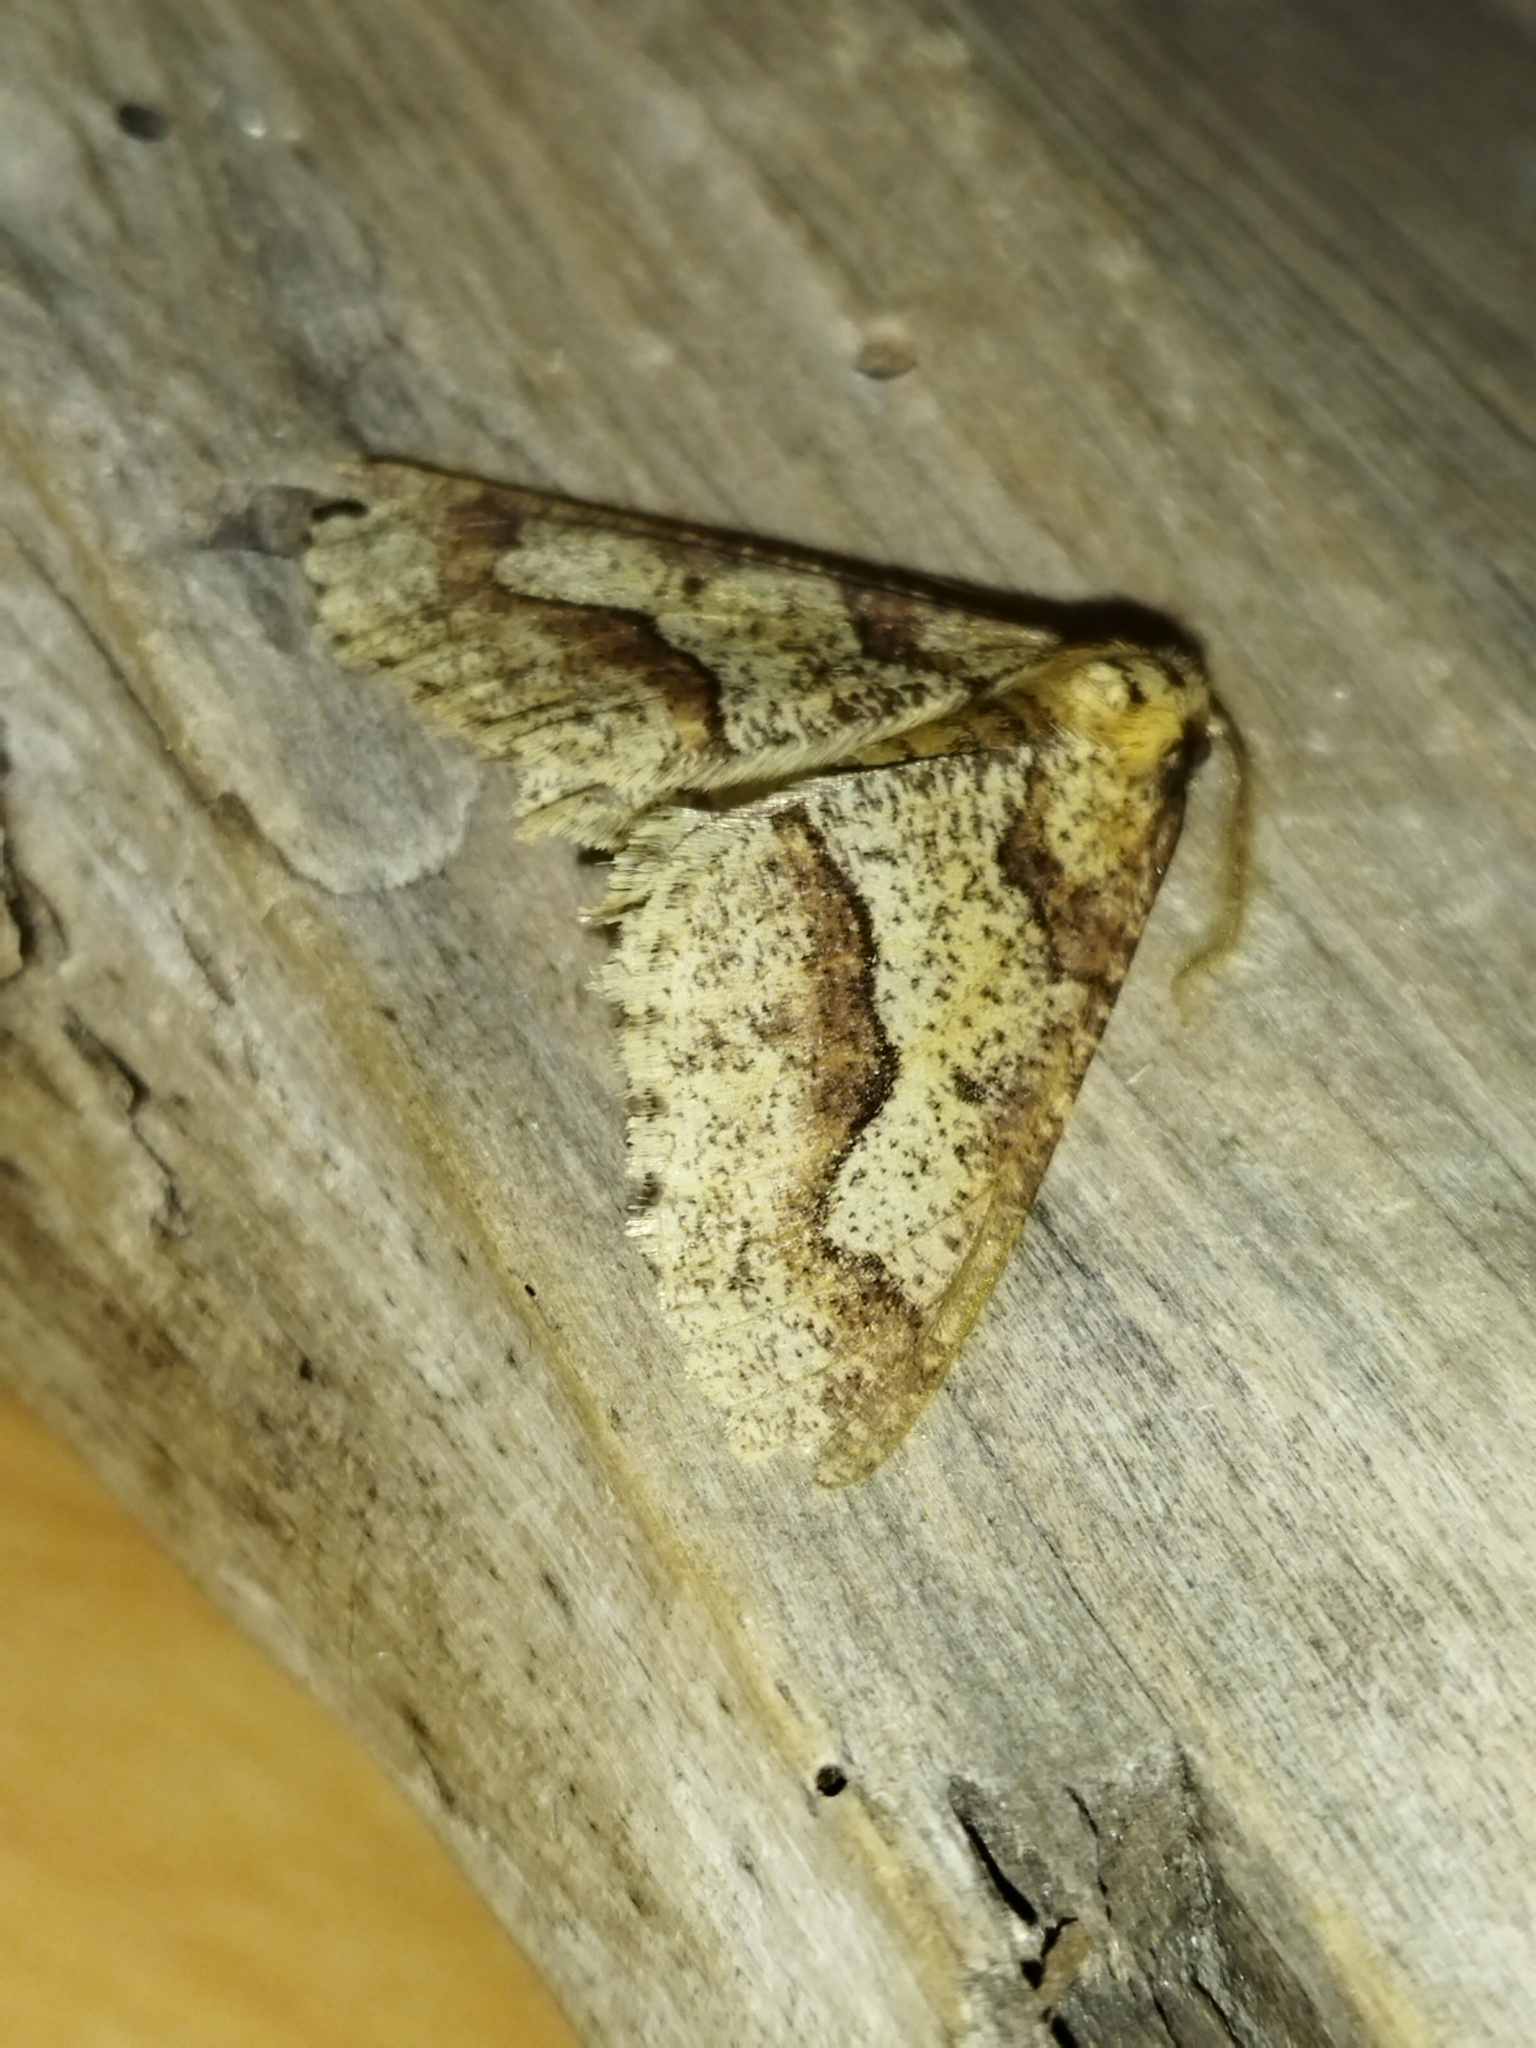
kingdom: Animalia
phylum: Arthropoda
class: Insecta
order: Lepidoptera
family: Geometridae
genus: Erannis
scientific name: Erannis defoliaria
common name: Mottled umber
